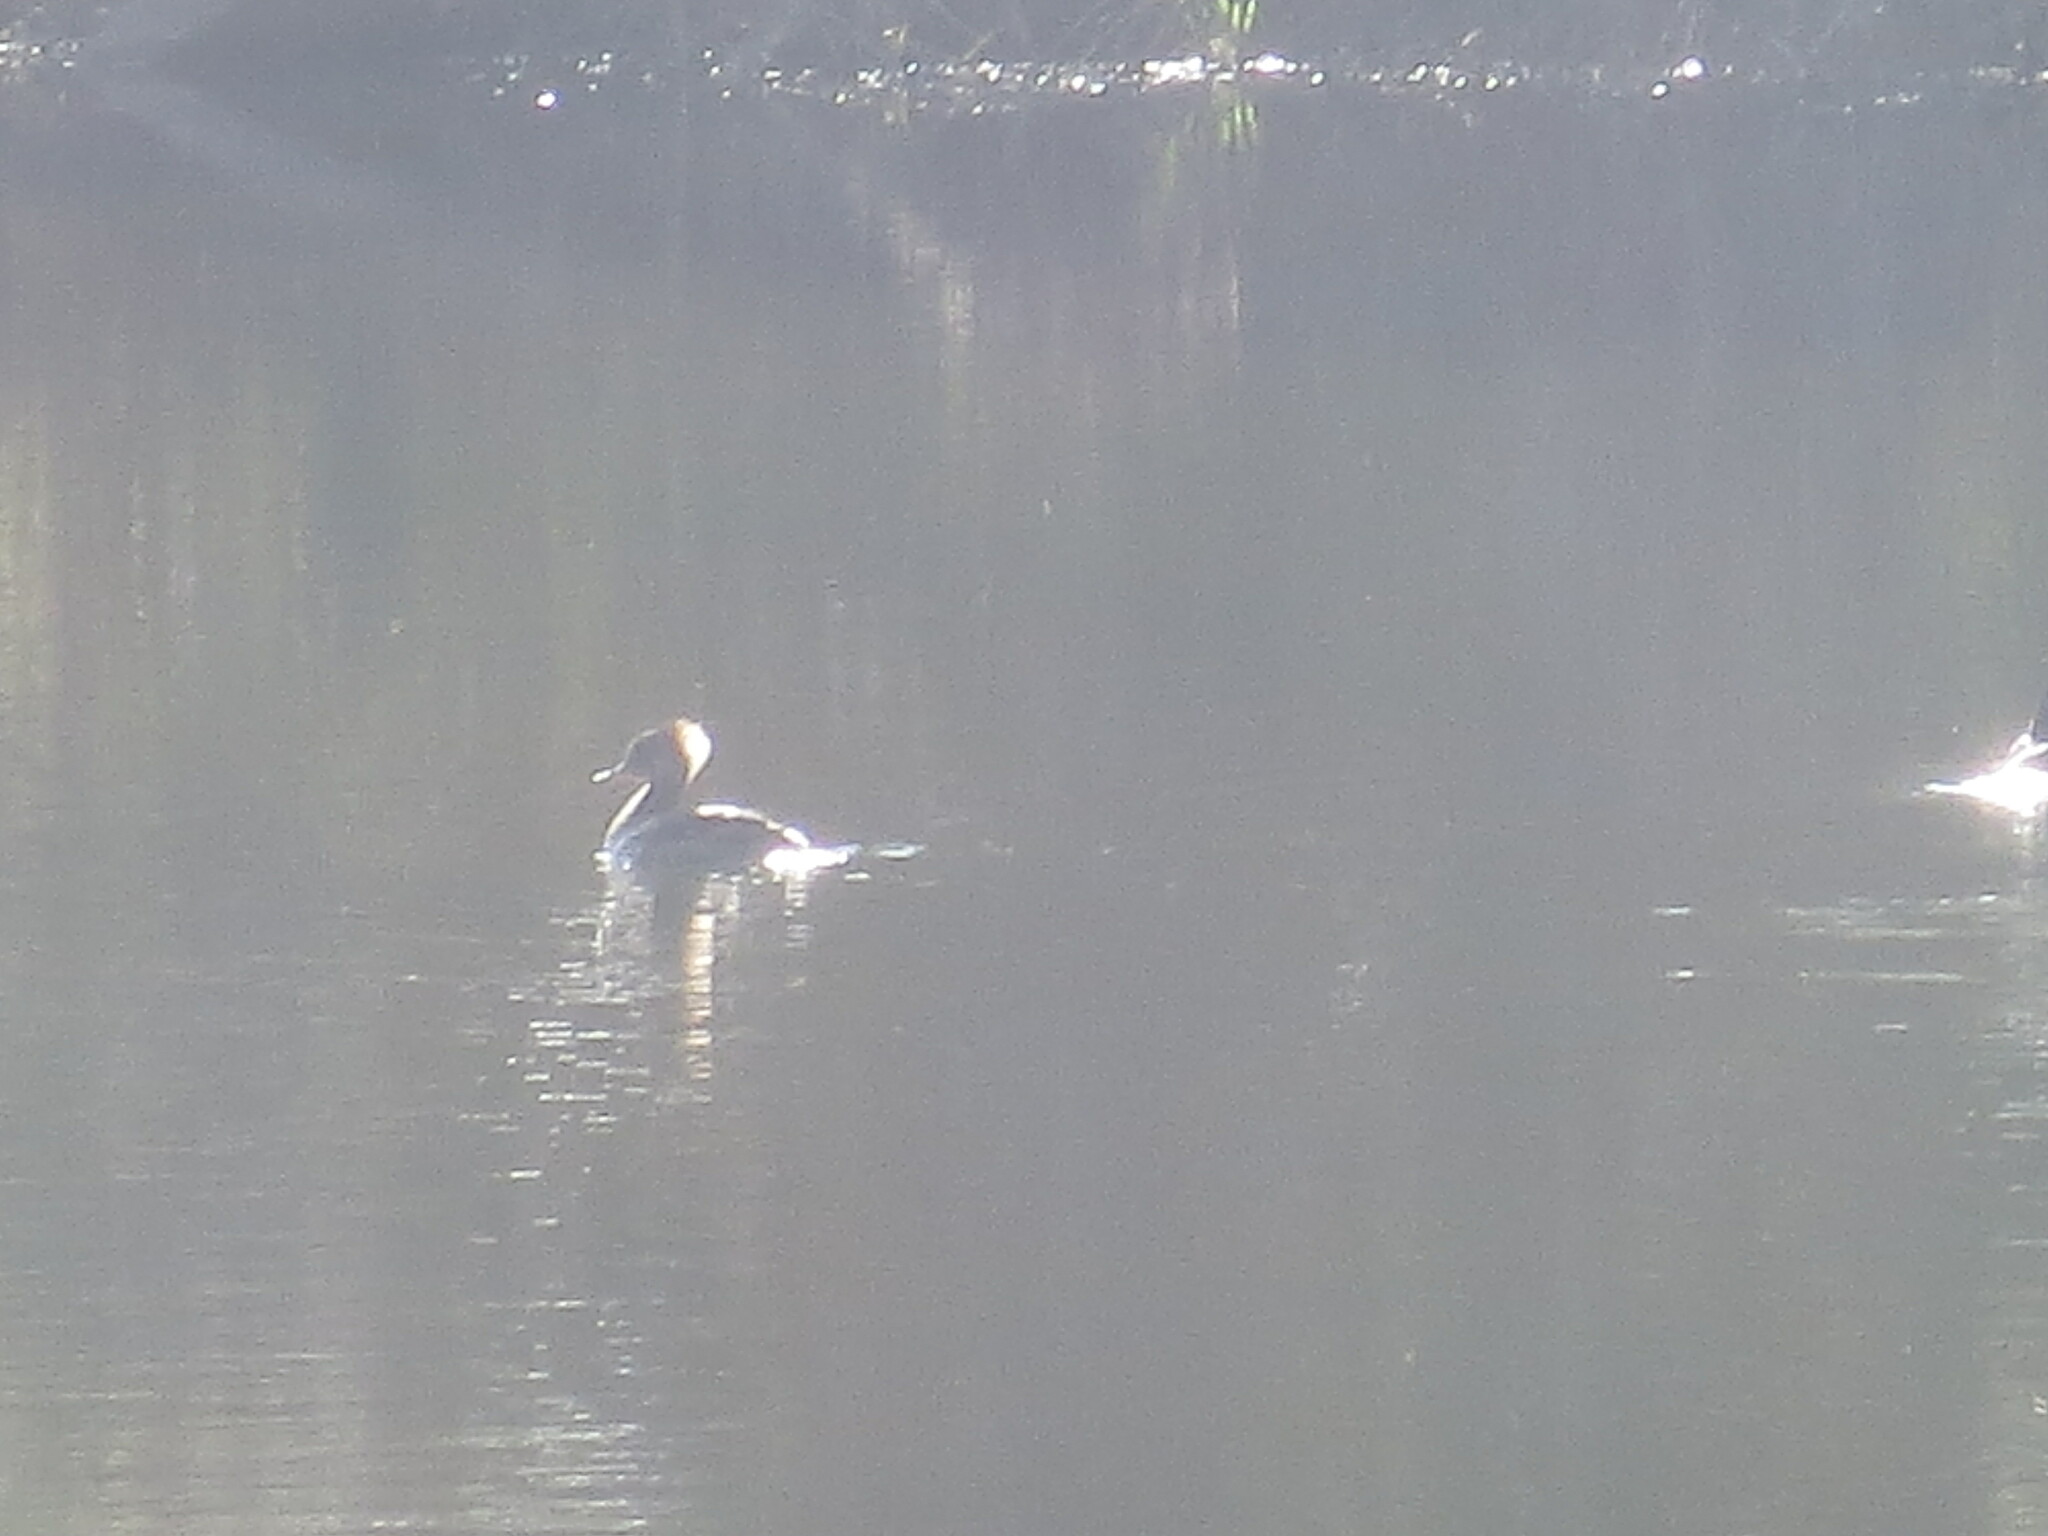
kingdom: Animalia
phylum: Chordata
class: Aves
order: Anseriformes
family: Anatidae
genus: Lophodytes
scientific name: Lophodytes cucullatus
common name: Hooded merganser
